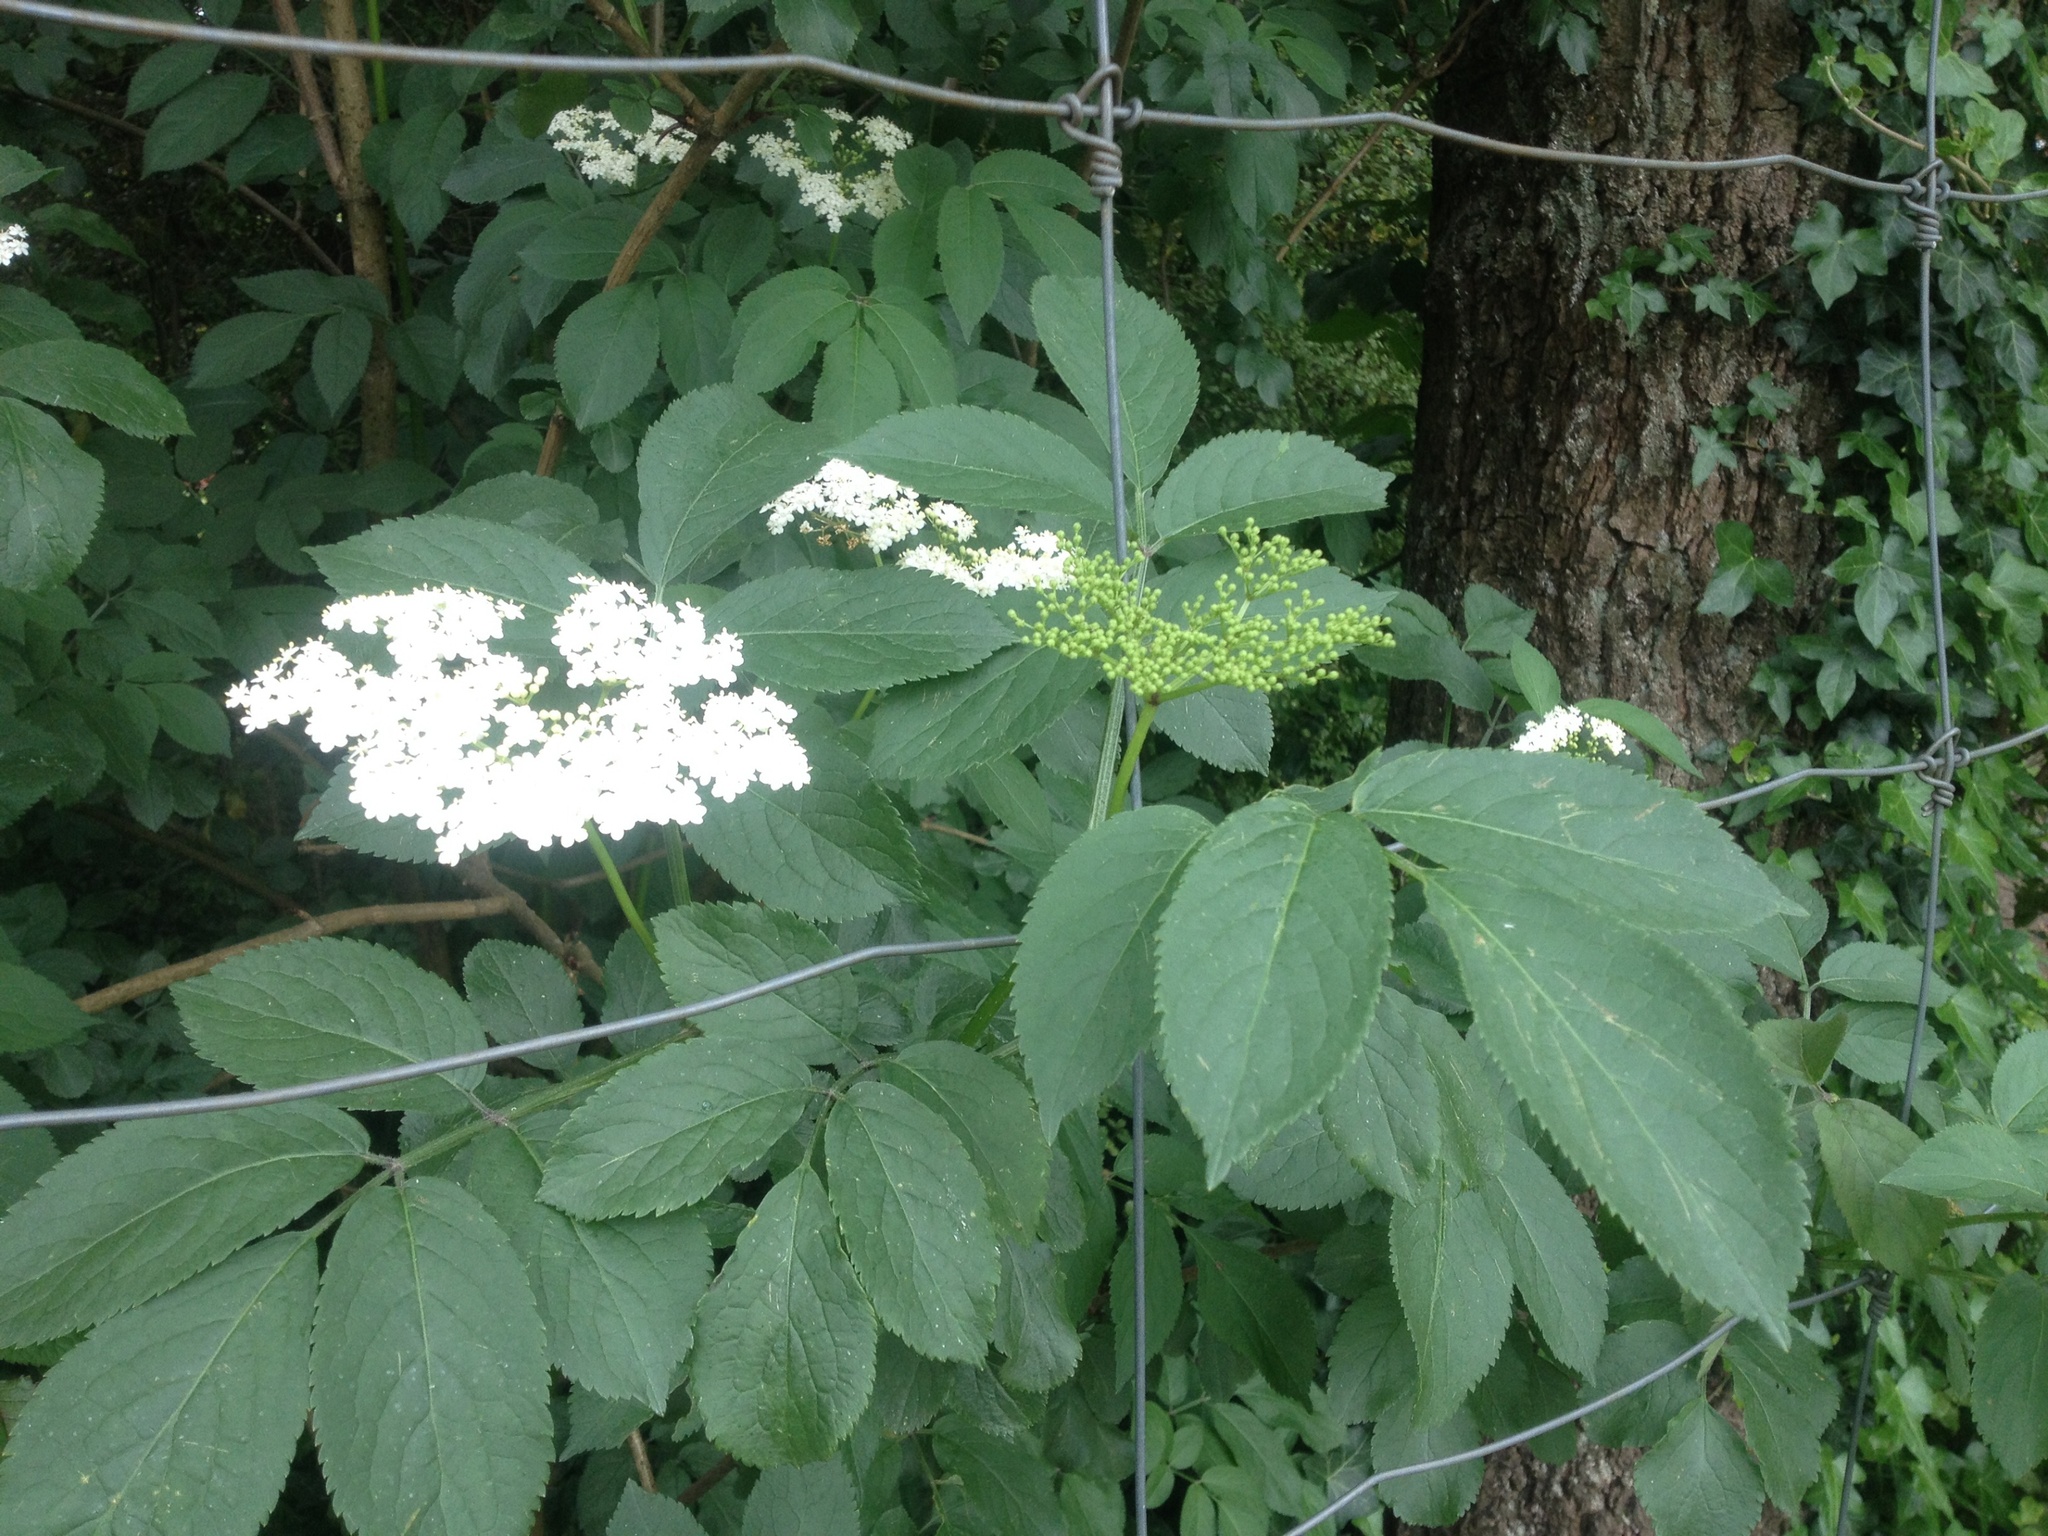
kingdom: Plantae
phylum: Tracheophyta
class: Magnoliopsida
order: Dipsacales
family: Viburnaceae
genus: Sambucus
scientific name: Sambucus nigra
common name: Elder
